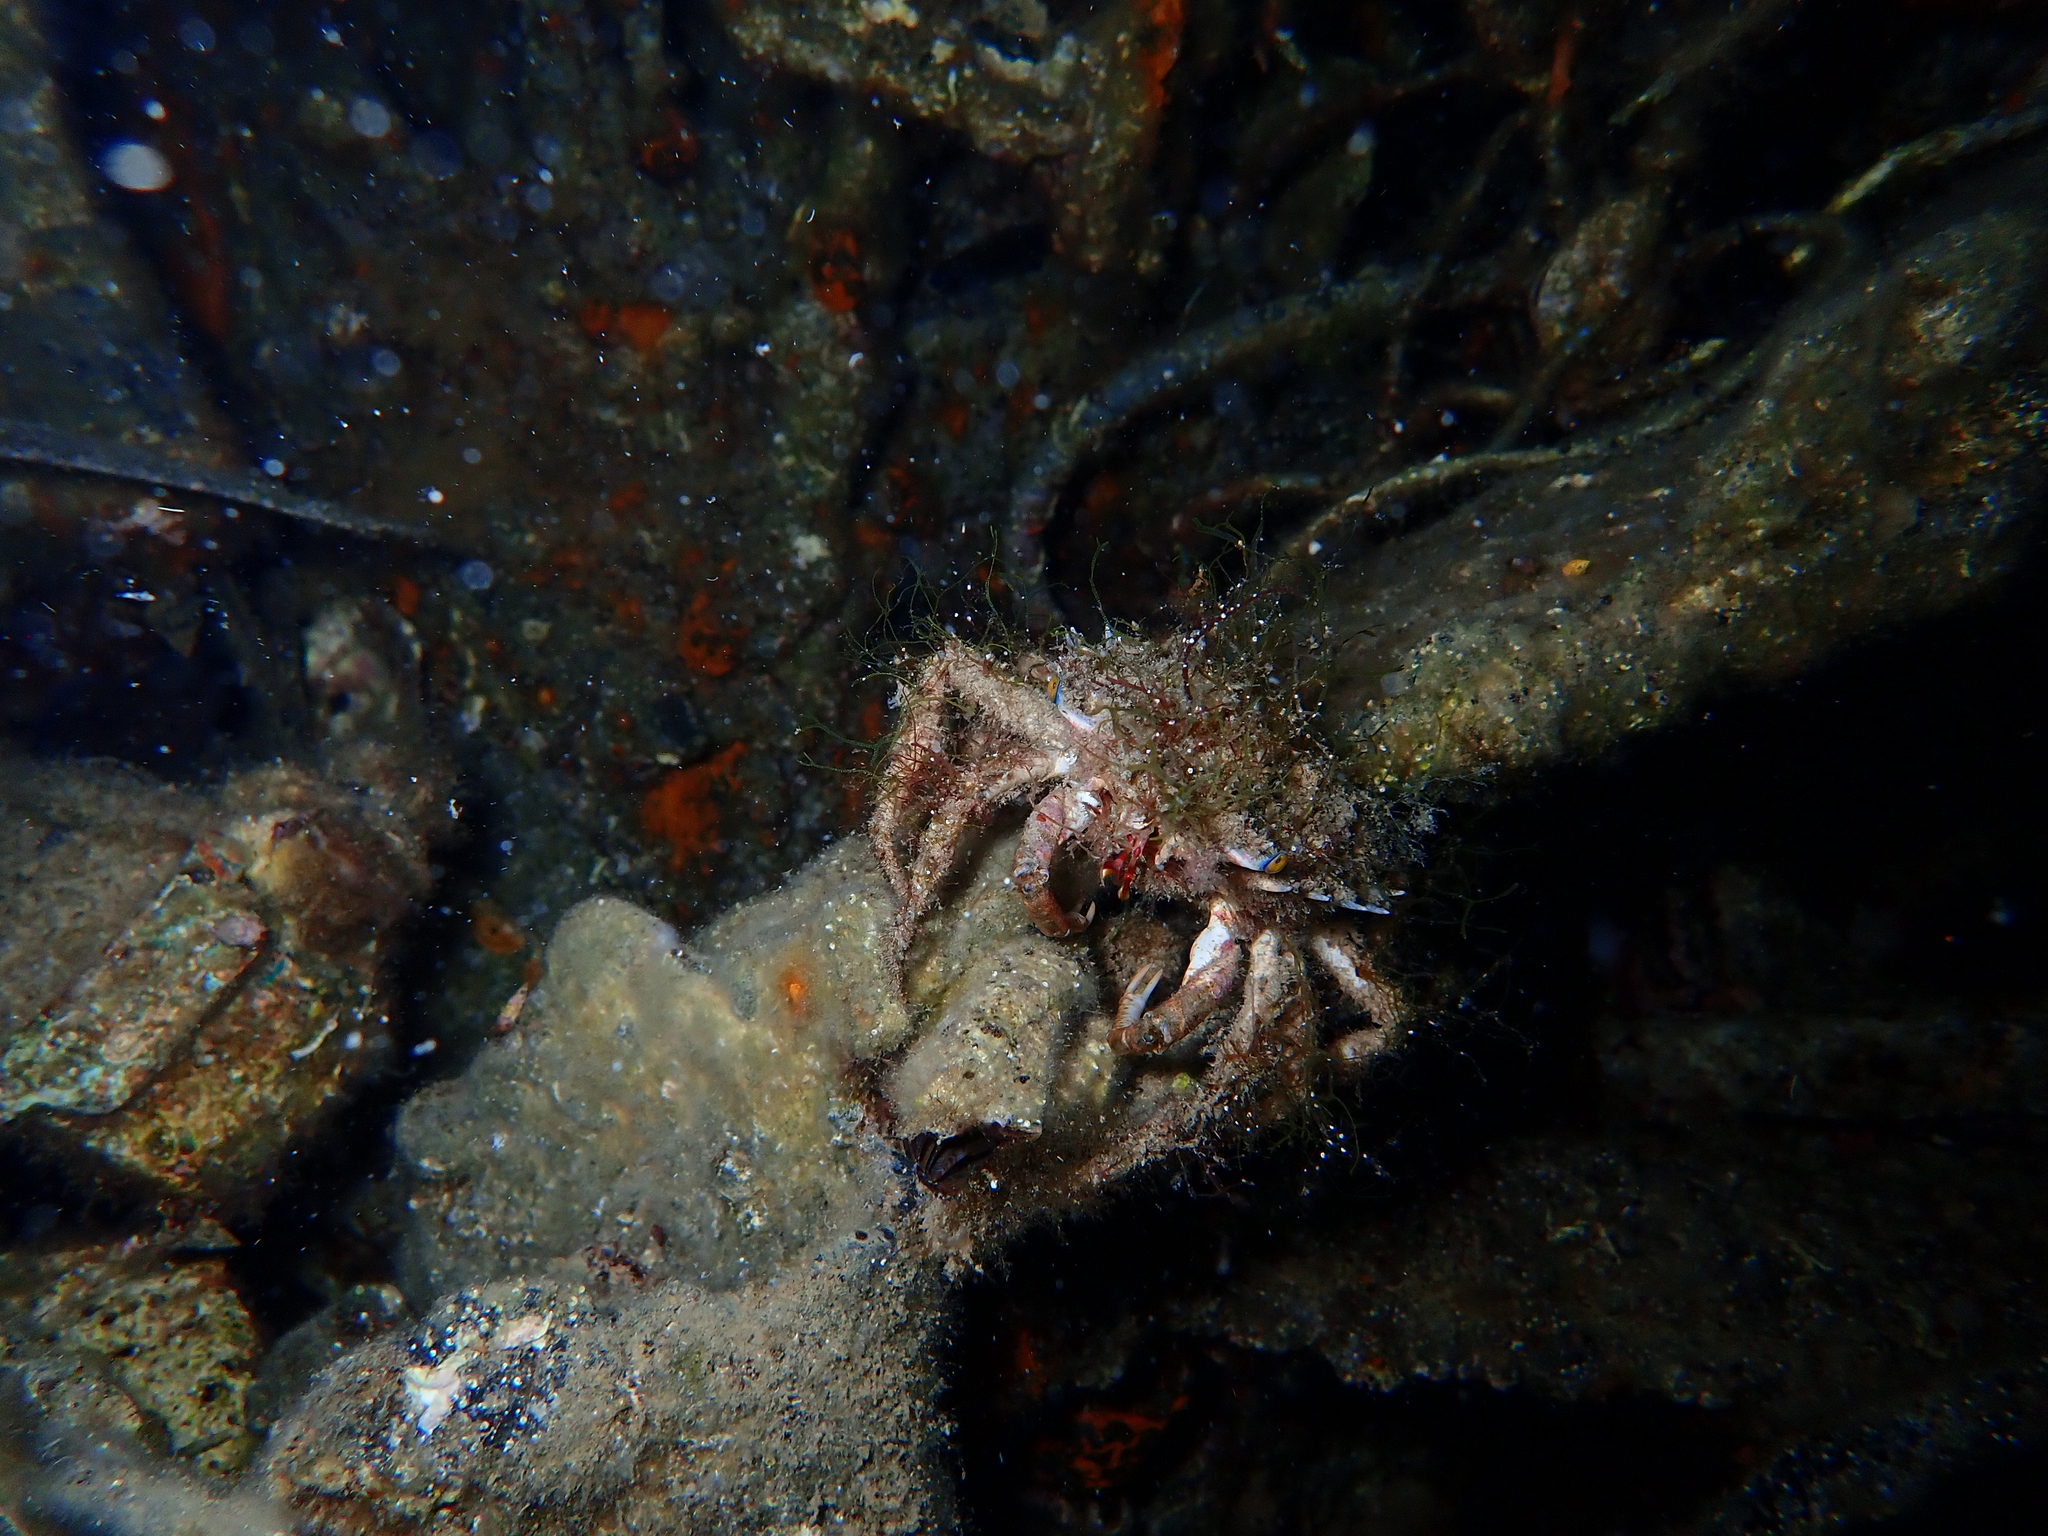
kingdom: Animalia
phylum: Arthropoda
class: Malacostraca
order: Decapoda
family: Majidae
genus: Maja
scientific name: Maja crispata
